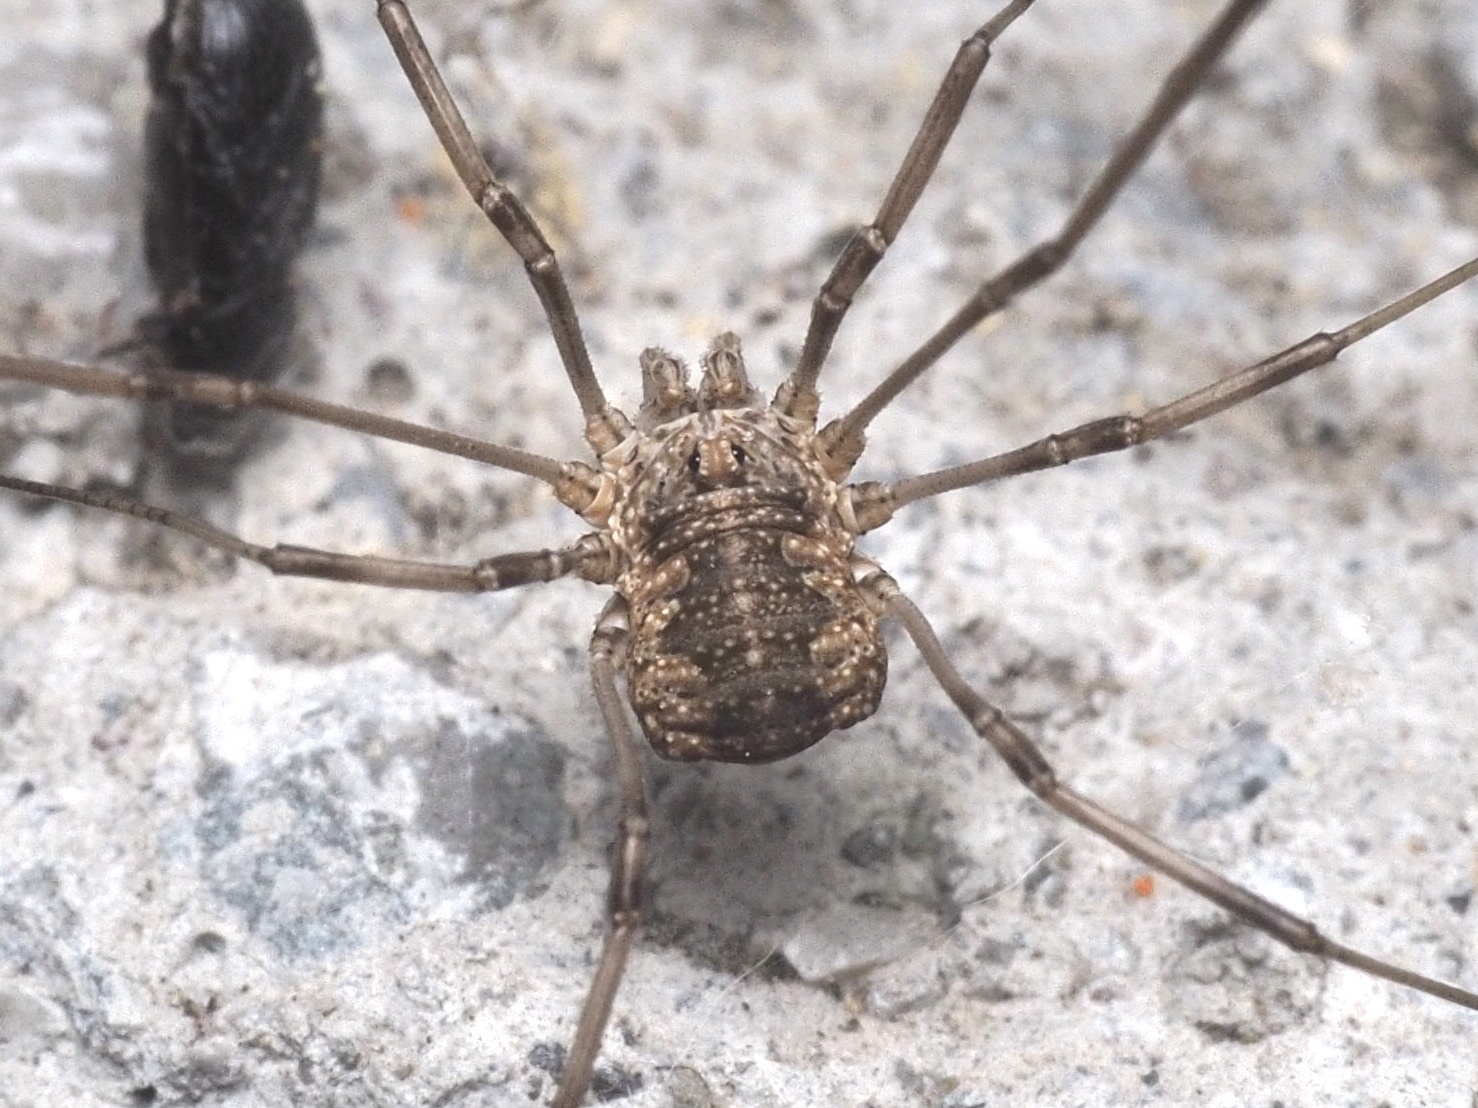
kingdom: Animalia
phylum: Arthropoda
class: Arachnida
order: Opiliones
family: Phalangiidae
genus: Phalangium
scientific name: Phalangium opilio
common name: Daddy longleg
